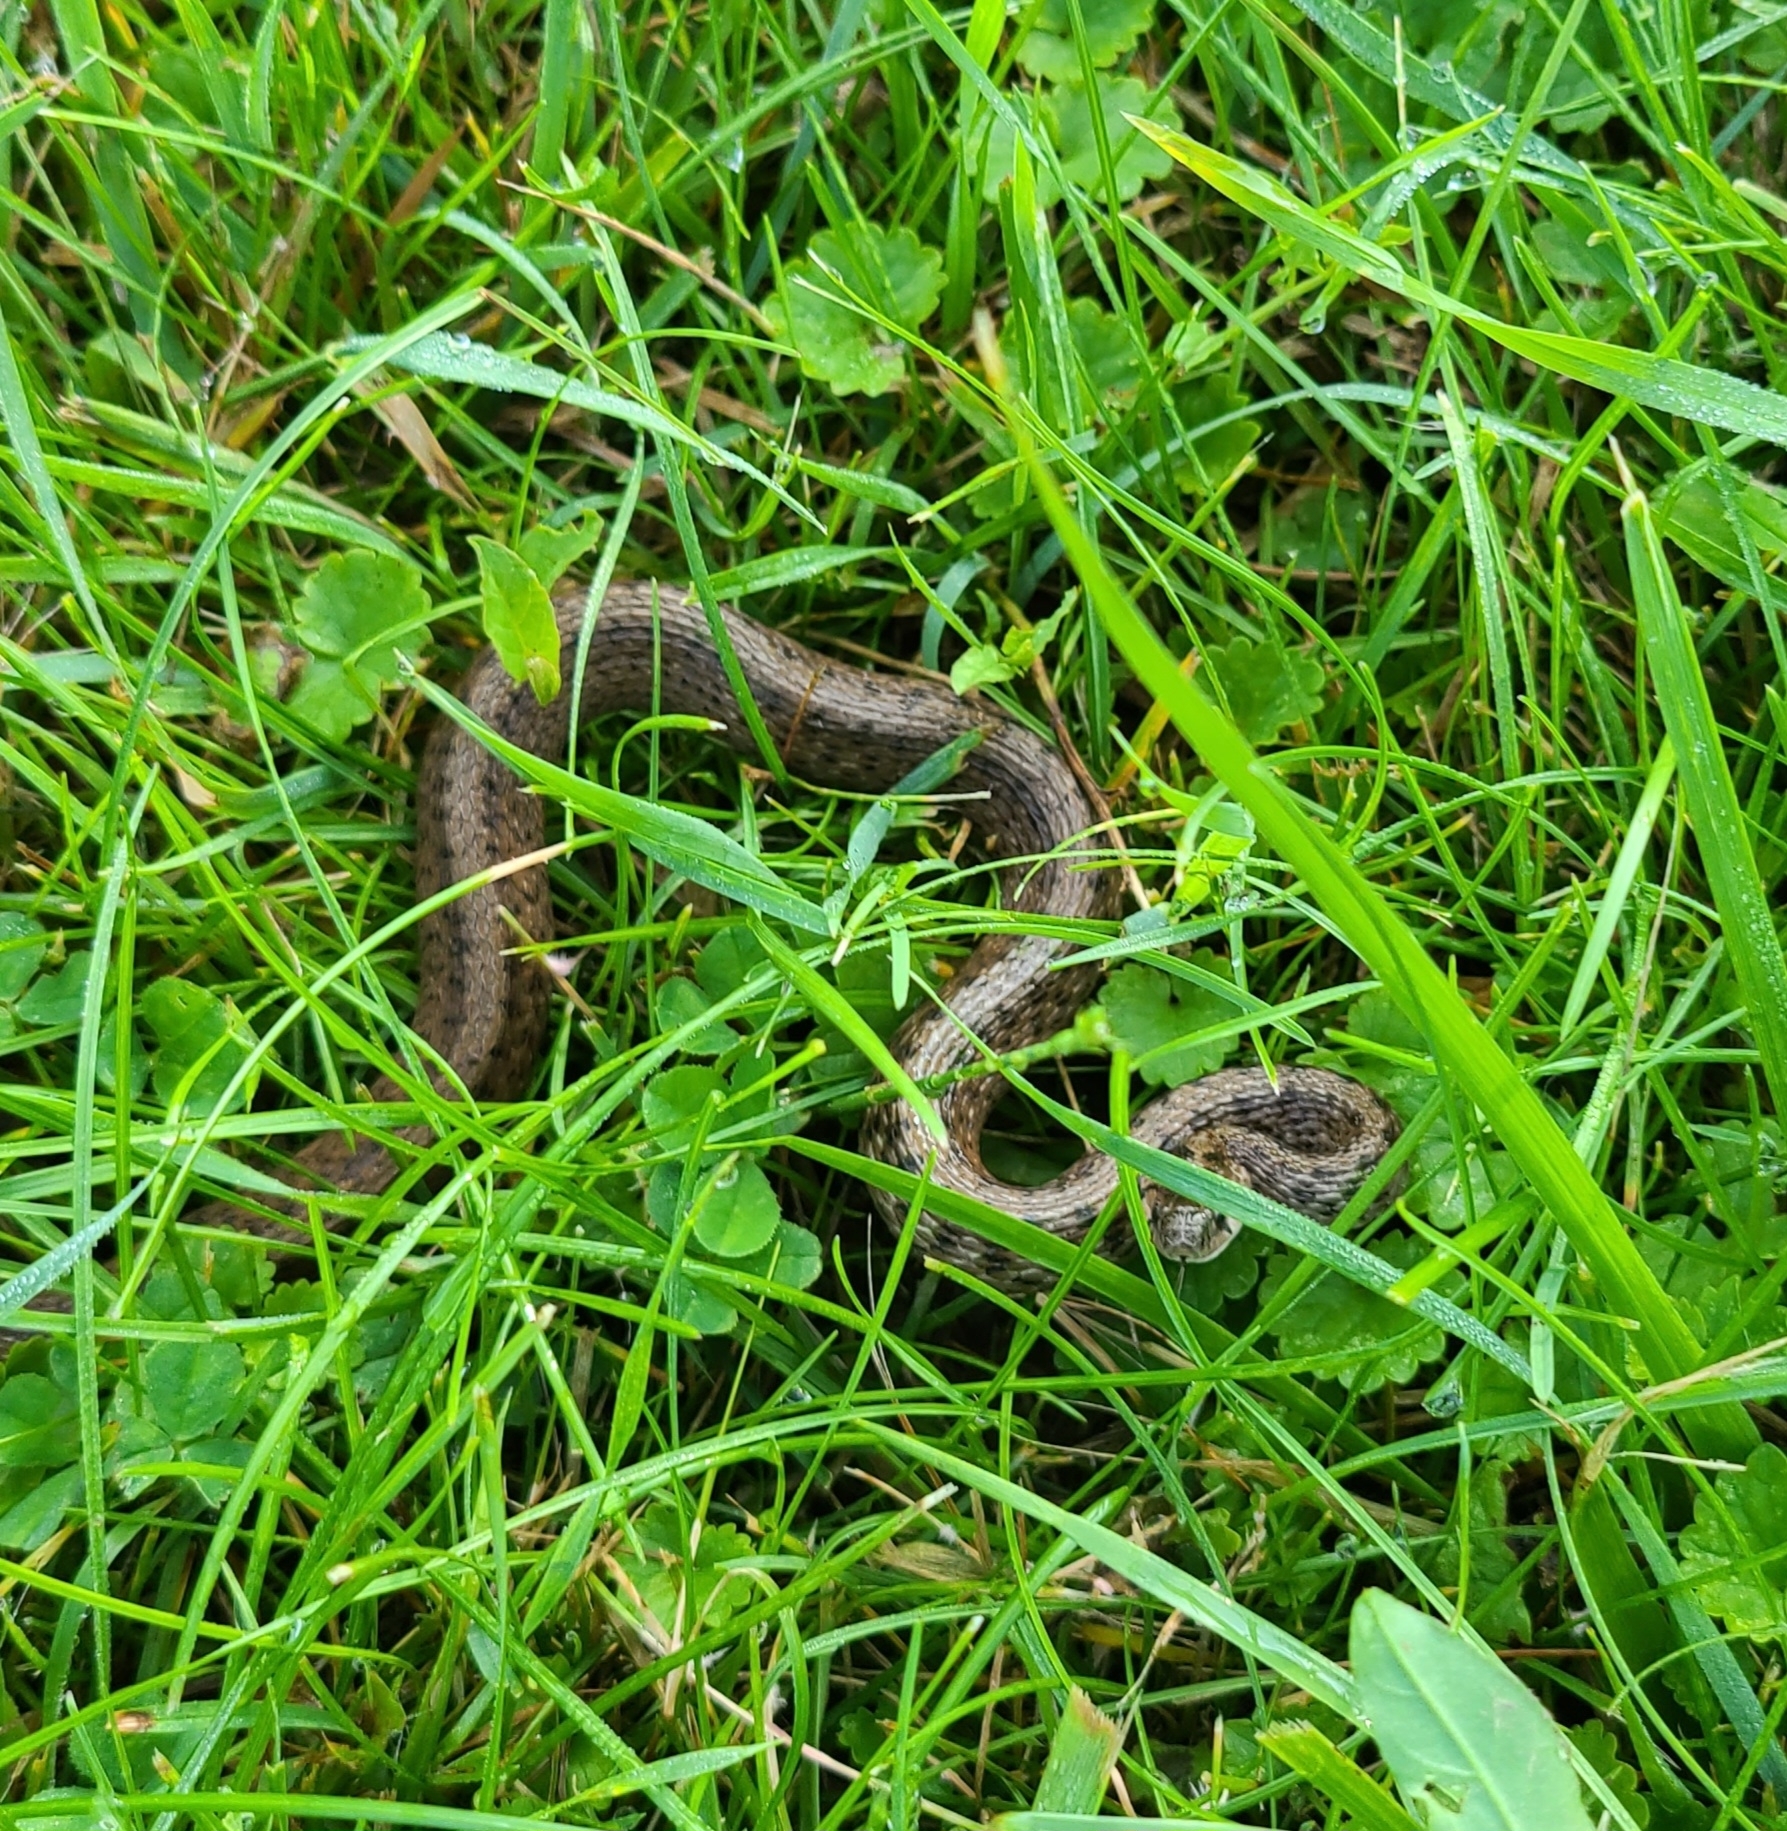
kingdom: Animalia
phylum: Chordata
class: Squamata
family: Colubridae
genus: Storeria
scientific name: Storeria dekayi
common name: (dekay’s) brown snake
